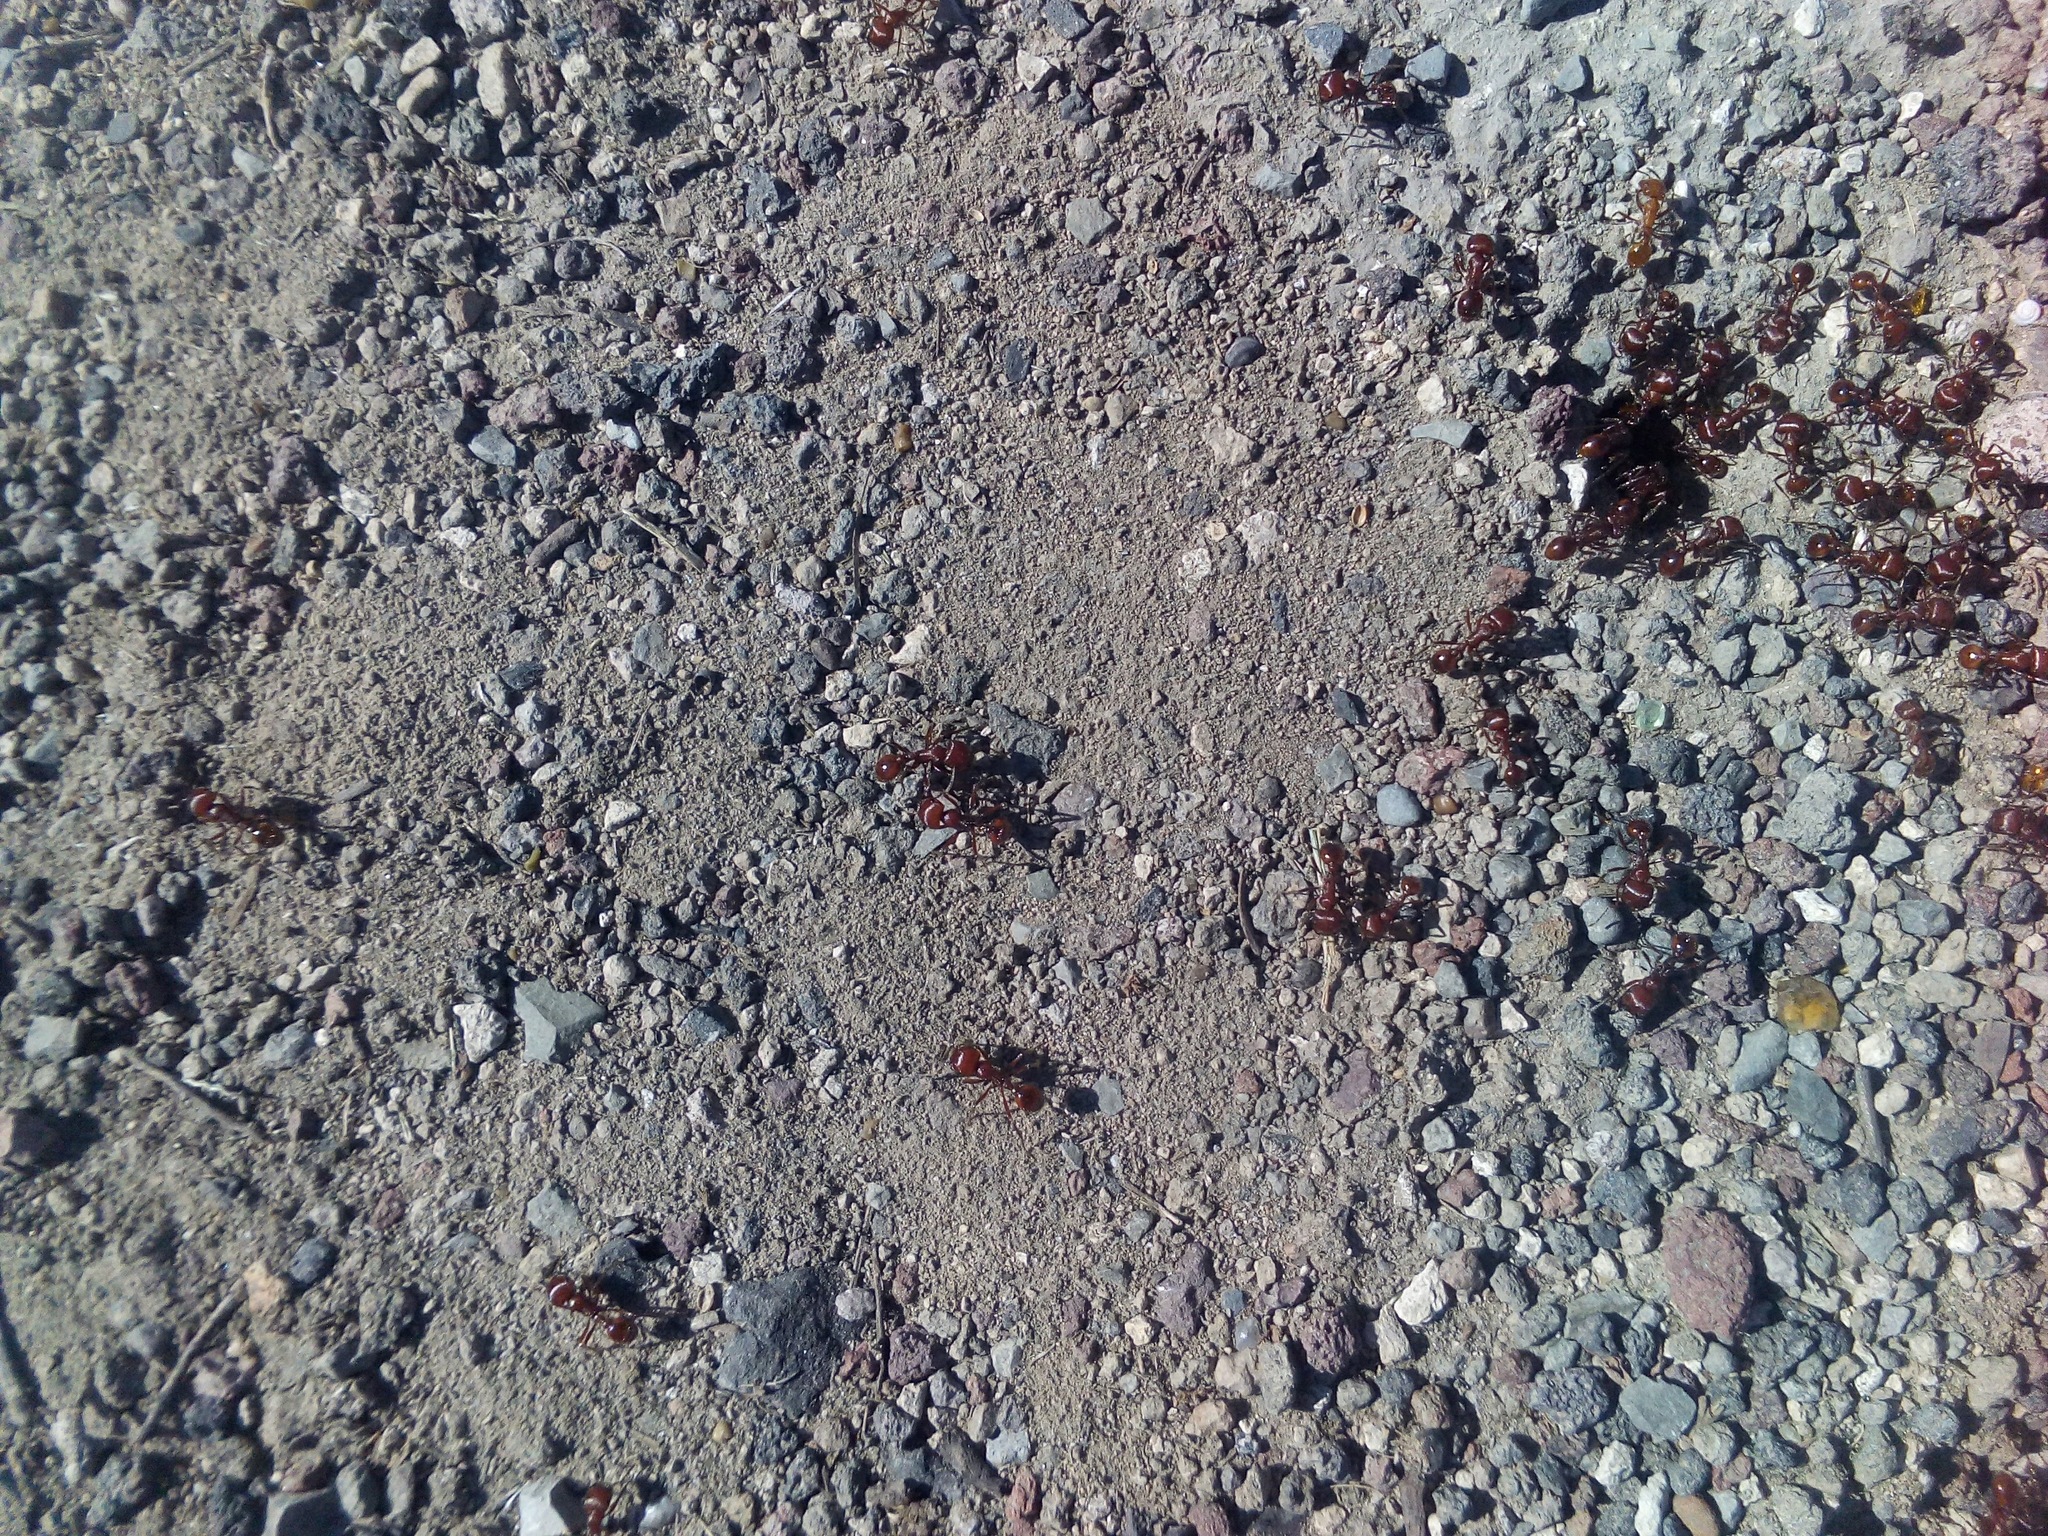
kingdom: Animalia
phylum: Arthropoda
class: Insecta
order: Hymenoptera
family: Formicidae
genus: Pogonomyrmex
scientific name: Pogonomyrmex barbatus
